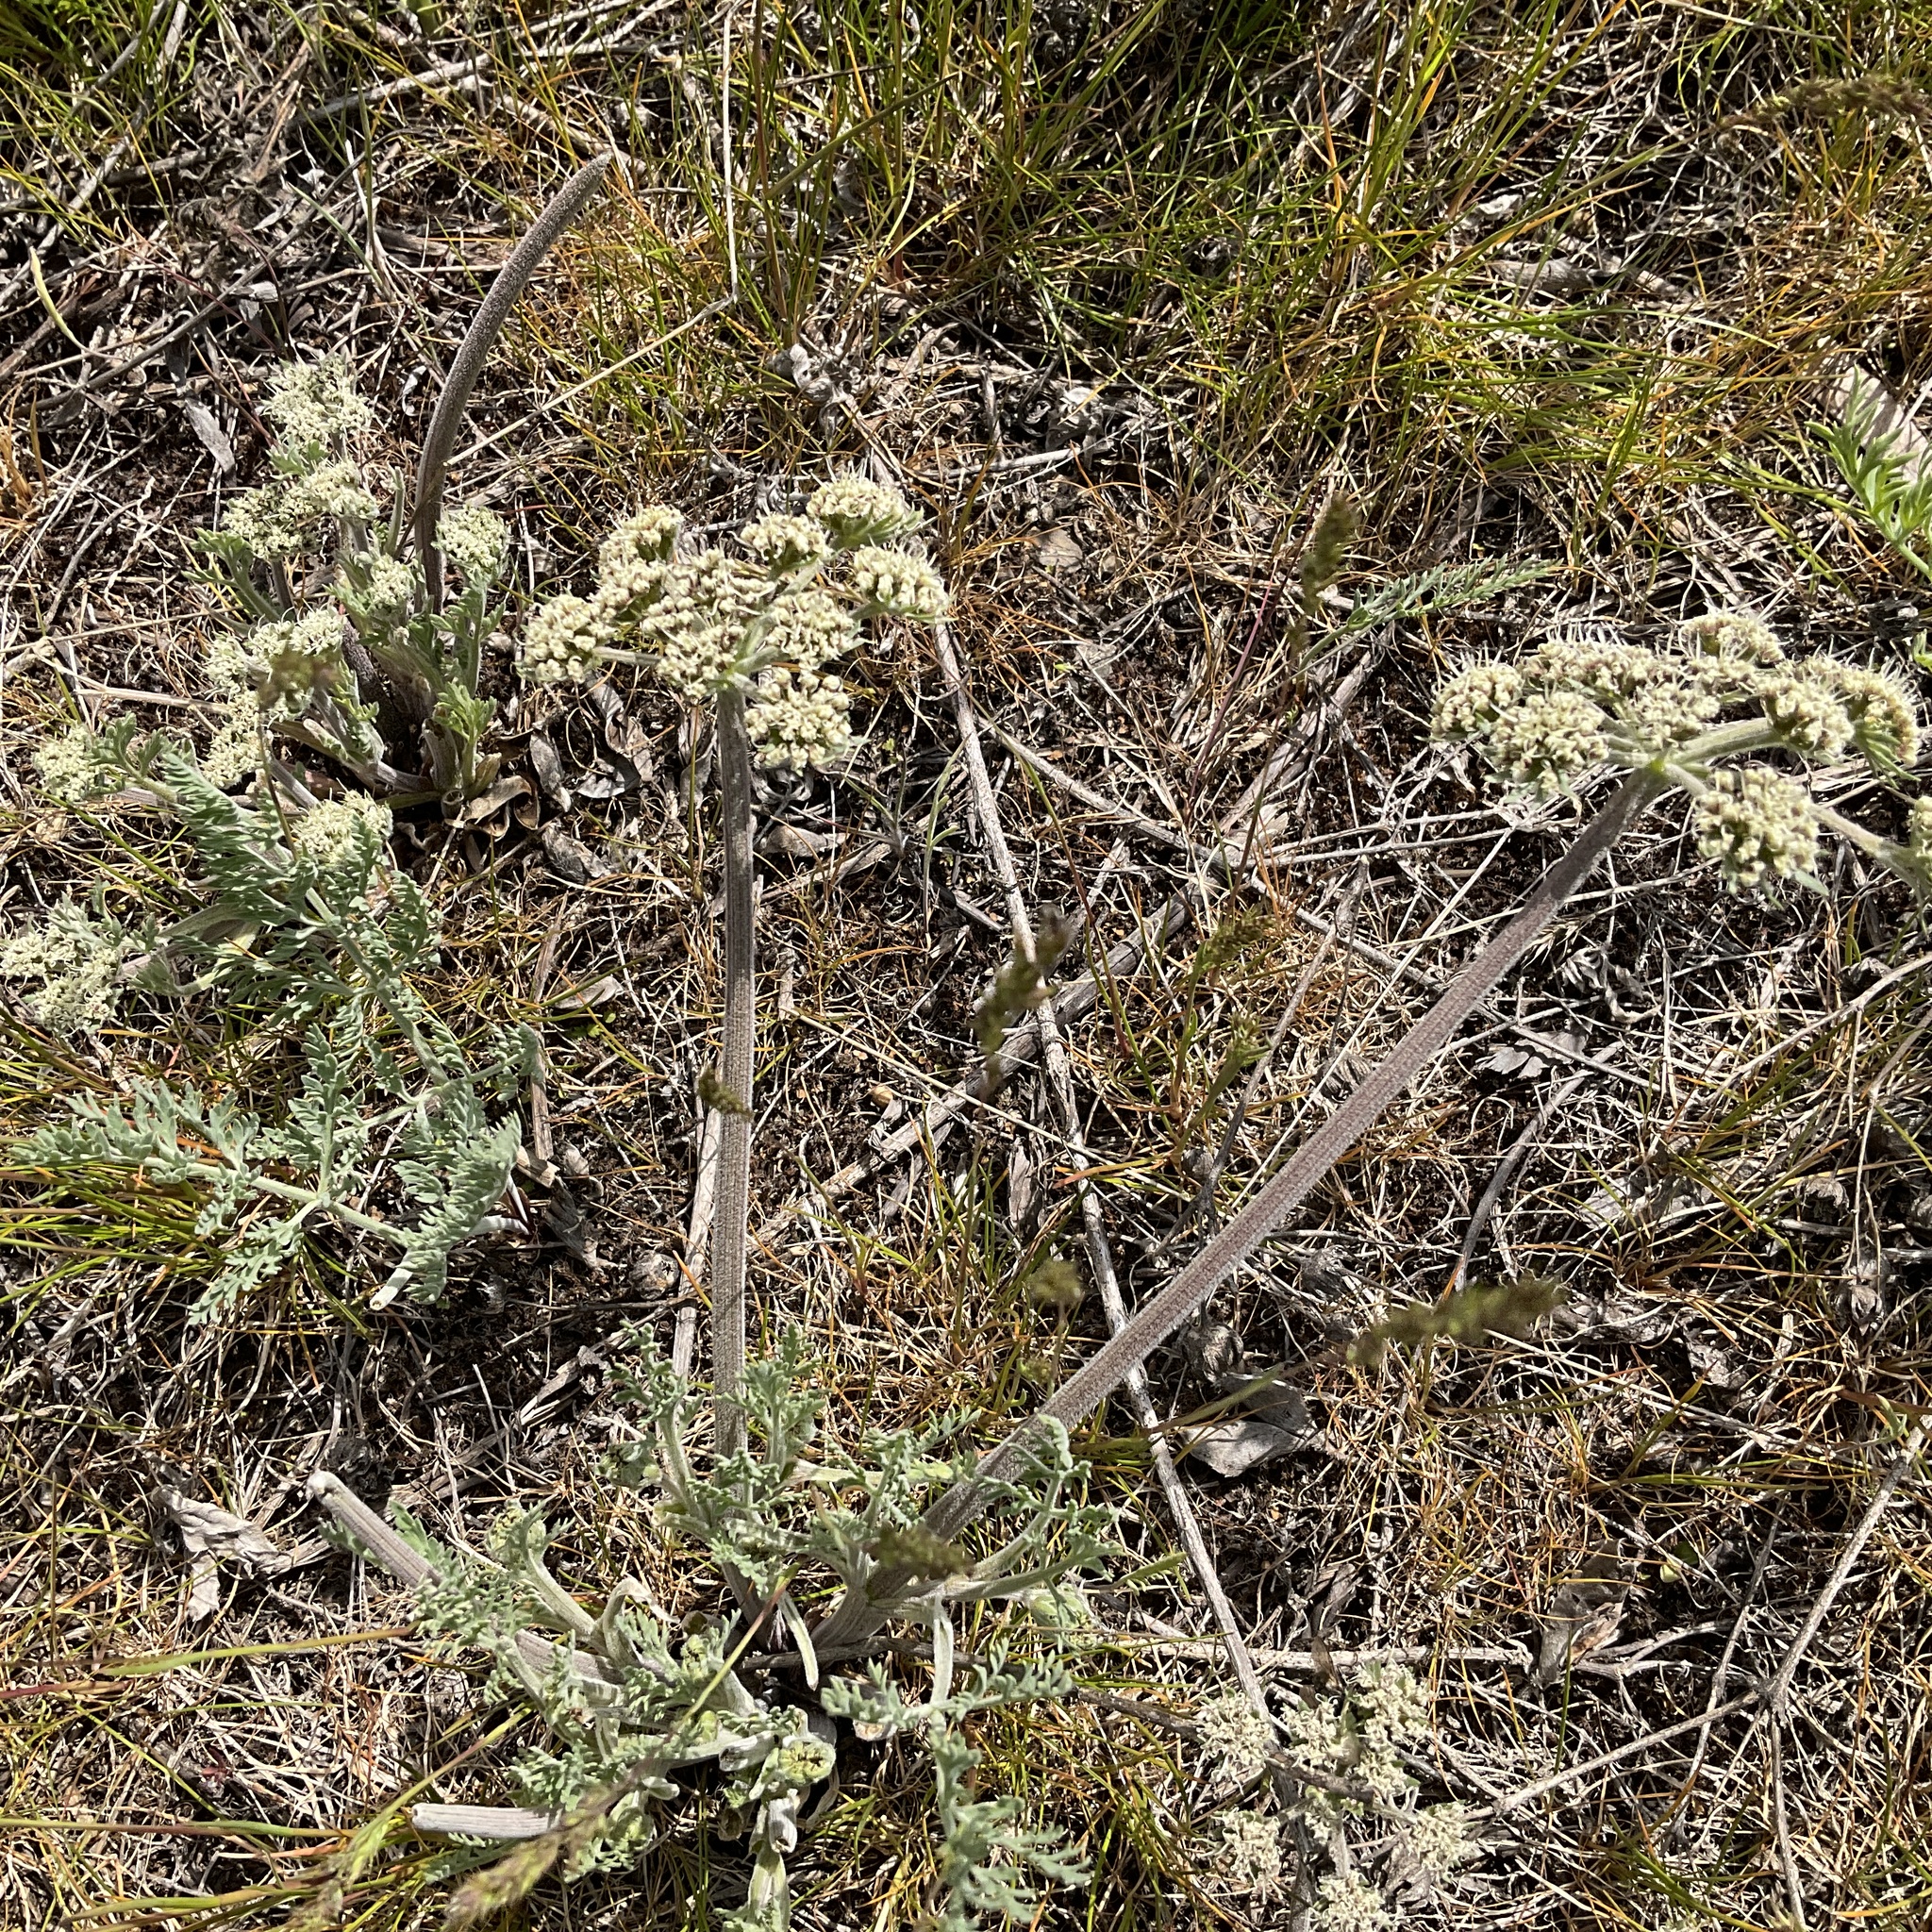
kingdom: Plantae
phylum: Tracheophyta
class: Magnoliopsida
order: Apiales
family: Apiaceae
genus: Lomatium
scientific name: Lomatium macrocarpum
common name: Big-seed biscuitroot
